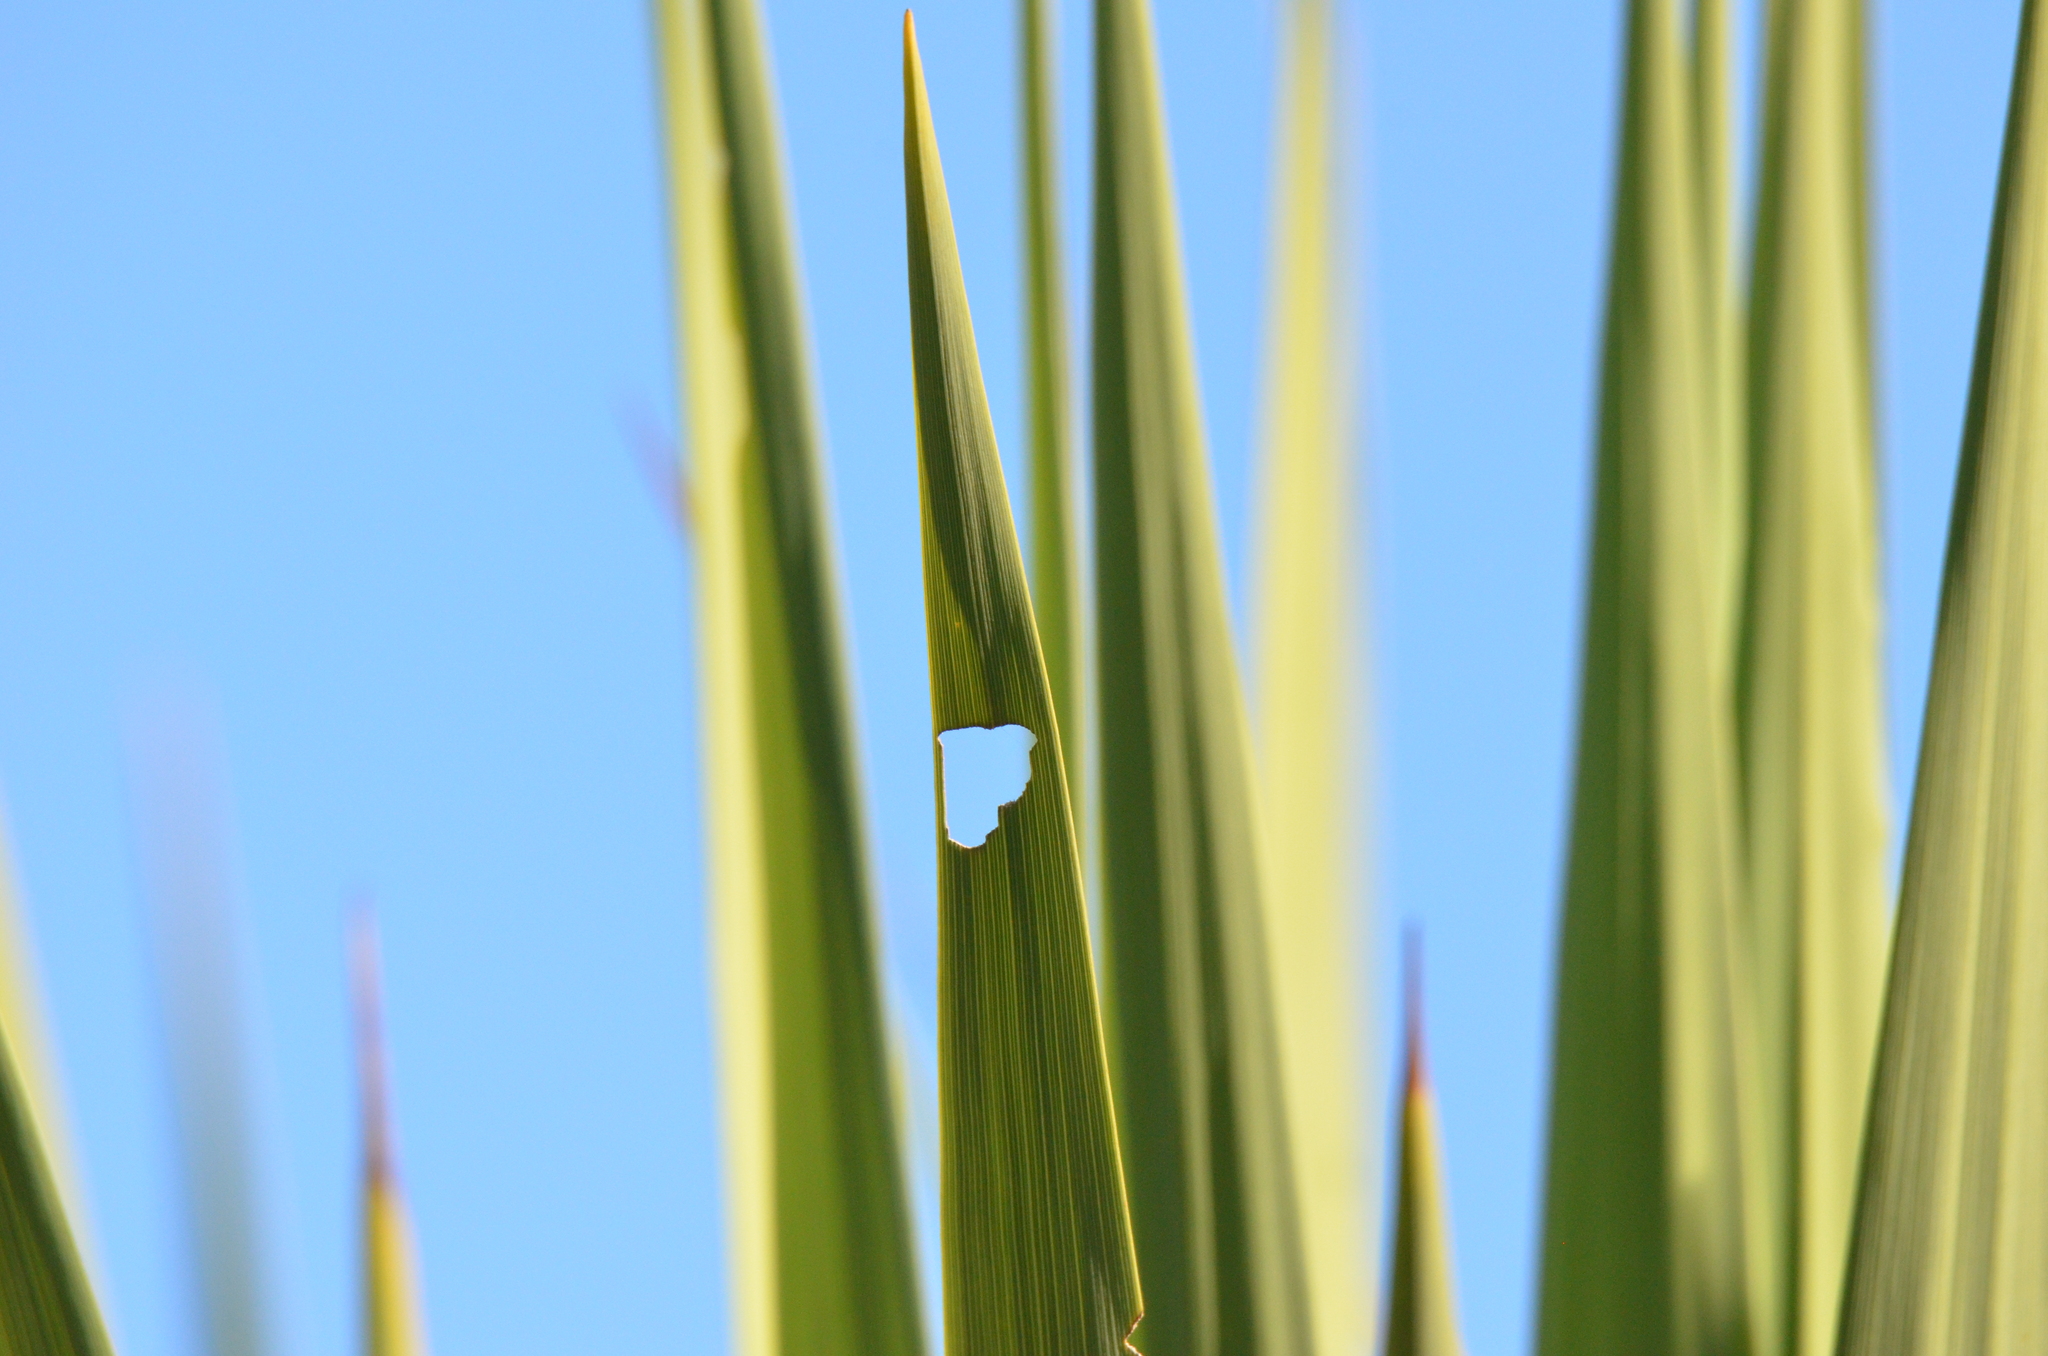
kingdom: Animalia
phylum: Arthropoda
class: Insecta
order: Lepidoptera
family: Geometridae
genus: Epiphryne
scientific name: Epiphryne verriculata
